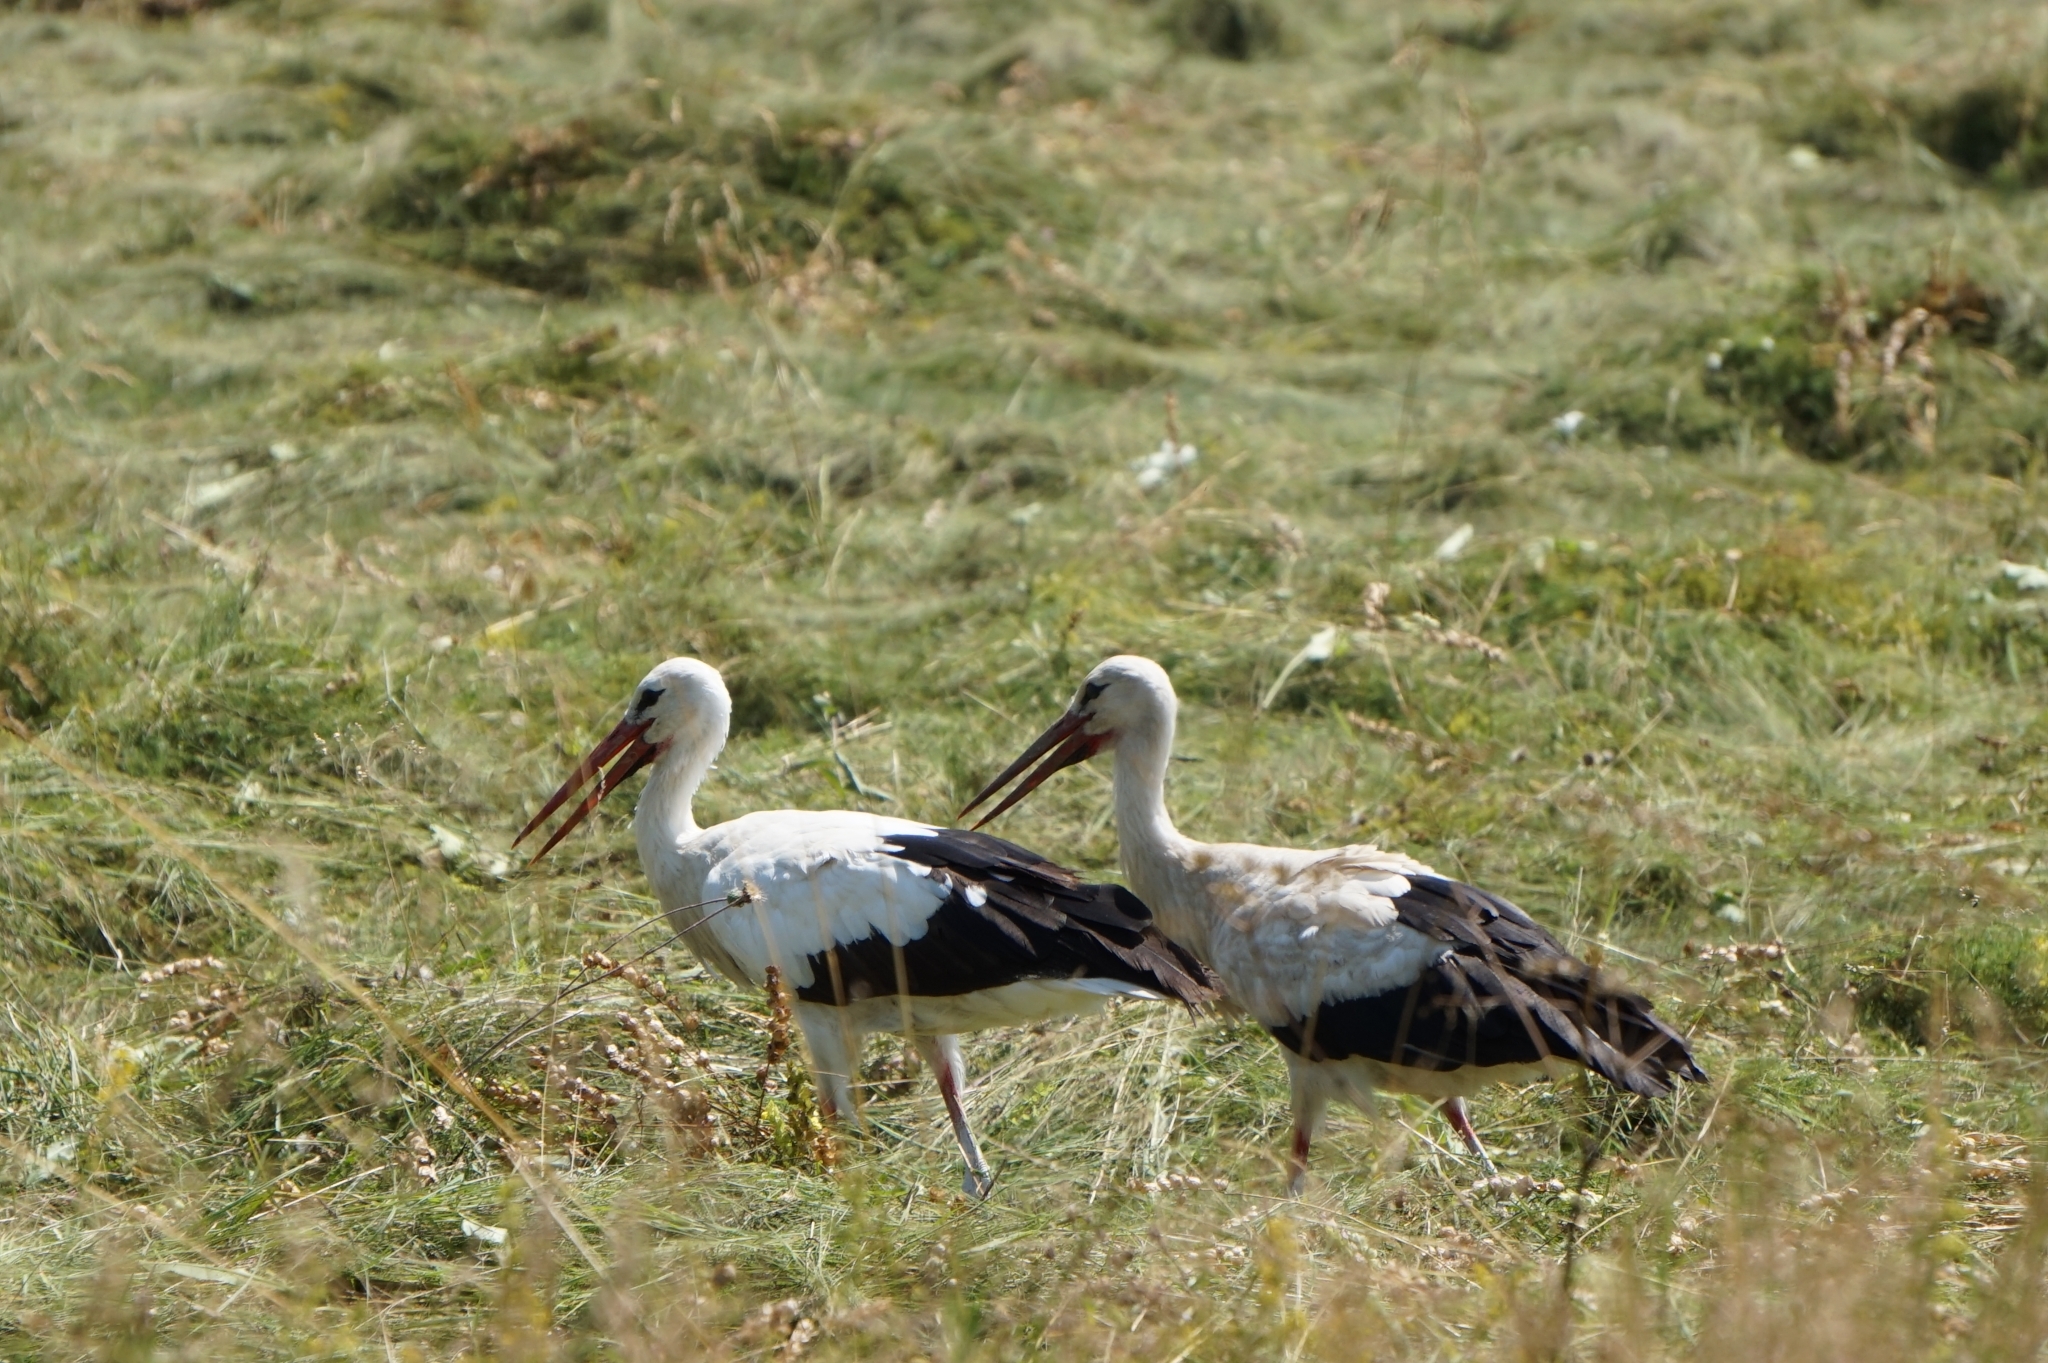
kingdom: Animalia
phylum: Chordata
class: Aves
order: Ciconiiformes
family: Ciconiidae
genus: Ciconia
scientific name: Ciconia ciconia
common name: White stork
